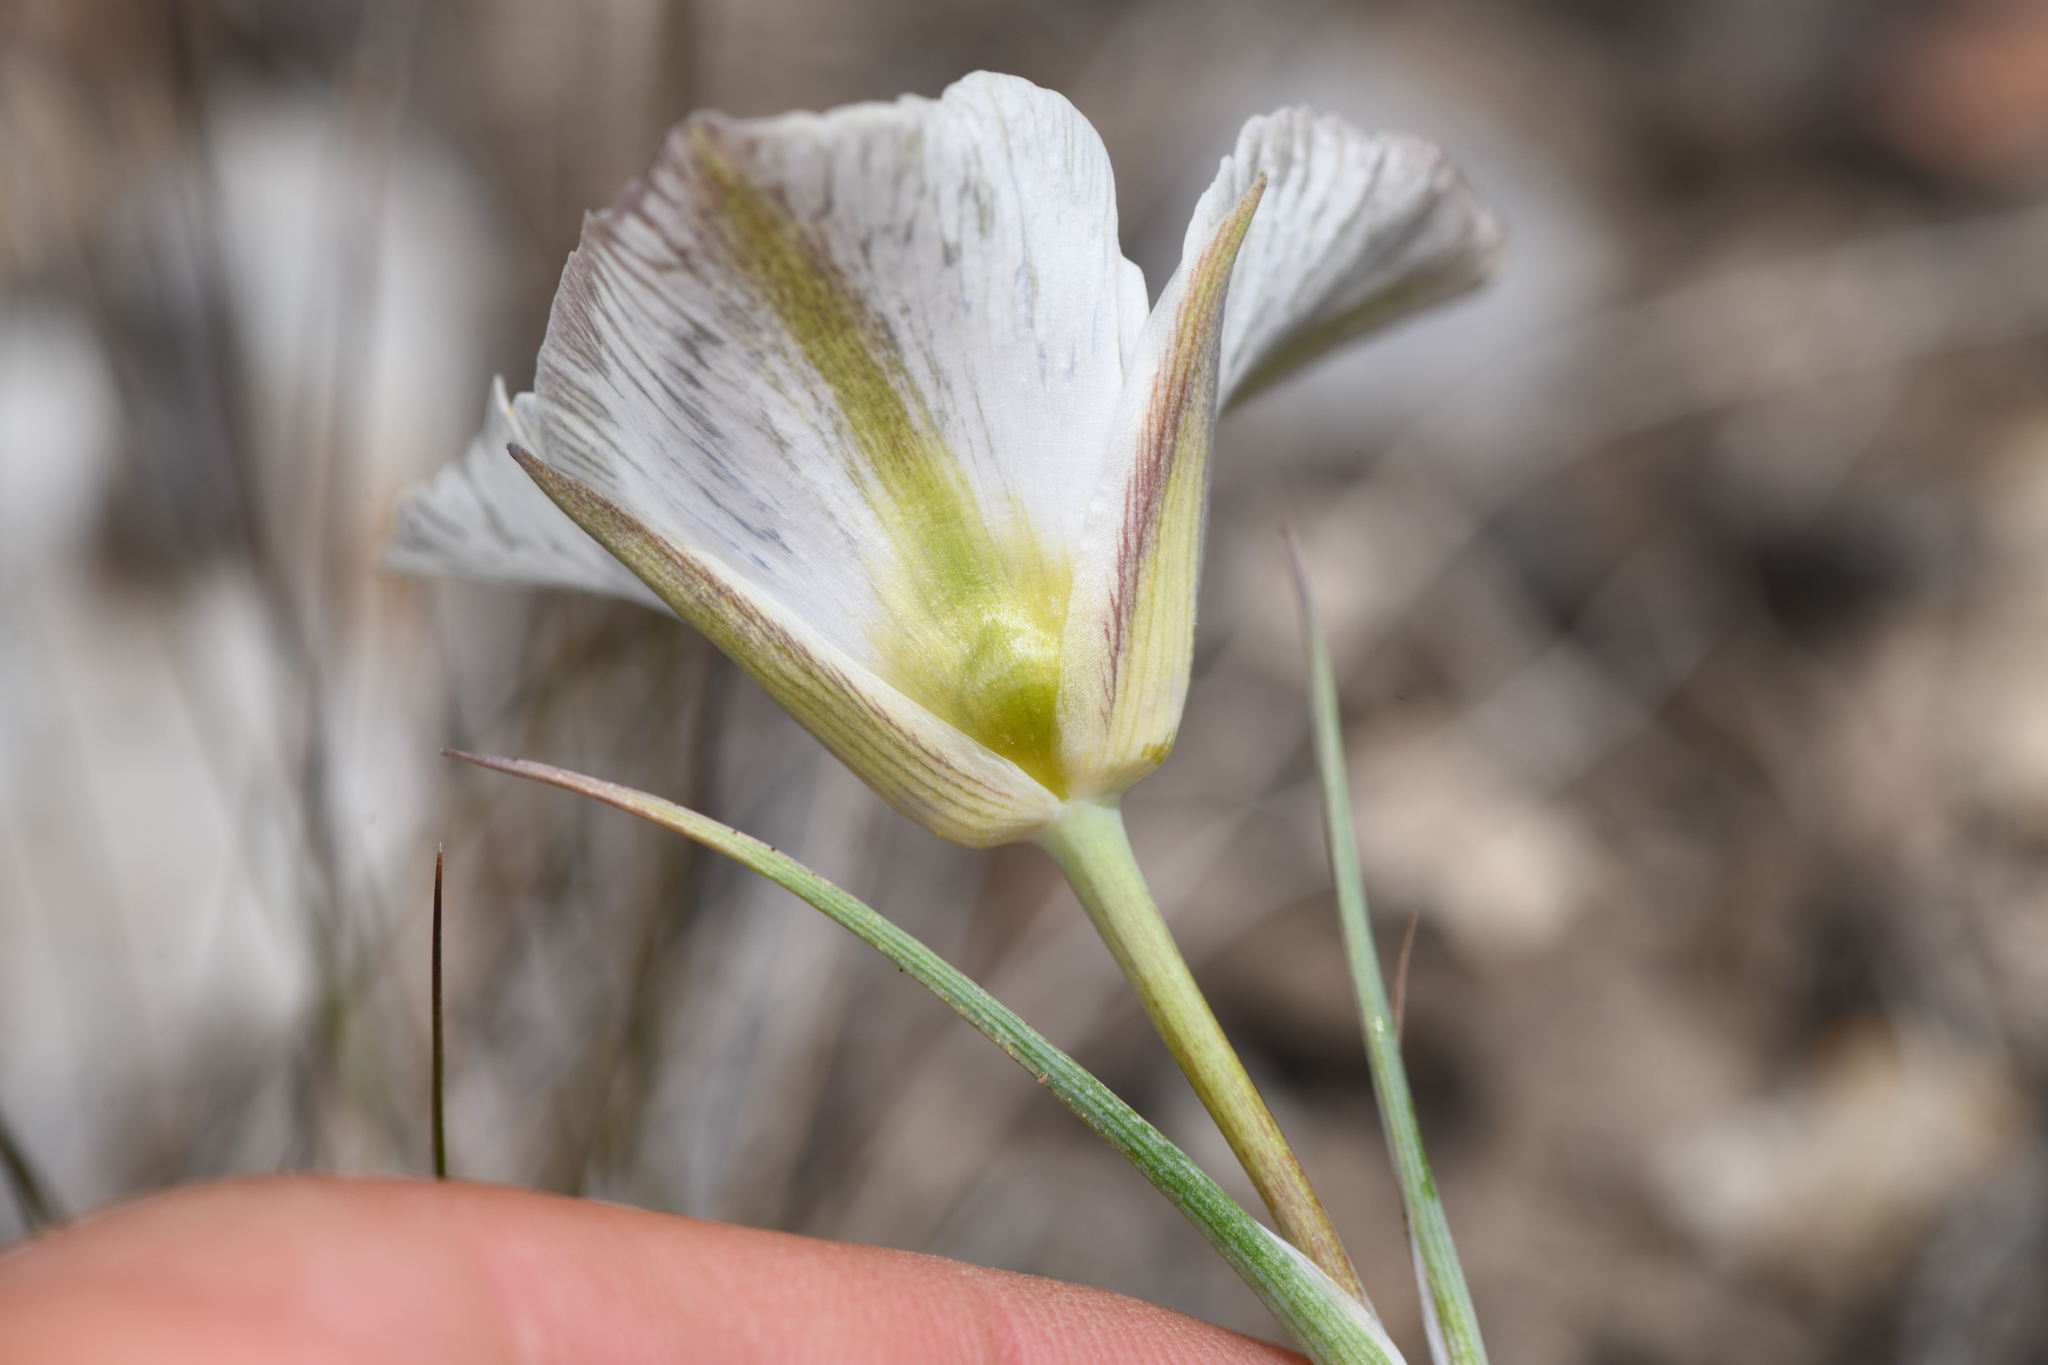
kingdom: Plantae
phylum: Tracheophyta
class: Liliopsida
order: Liliales
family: Liliaceae
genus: Calochortus
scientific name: Calochortus leichtlinii
